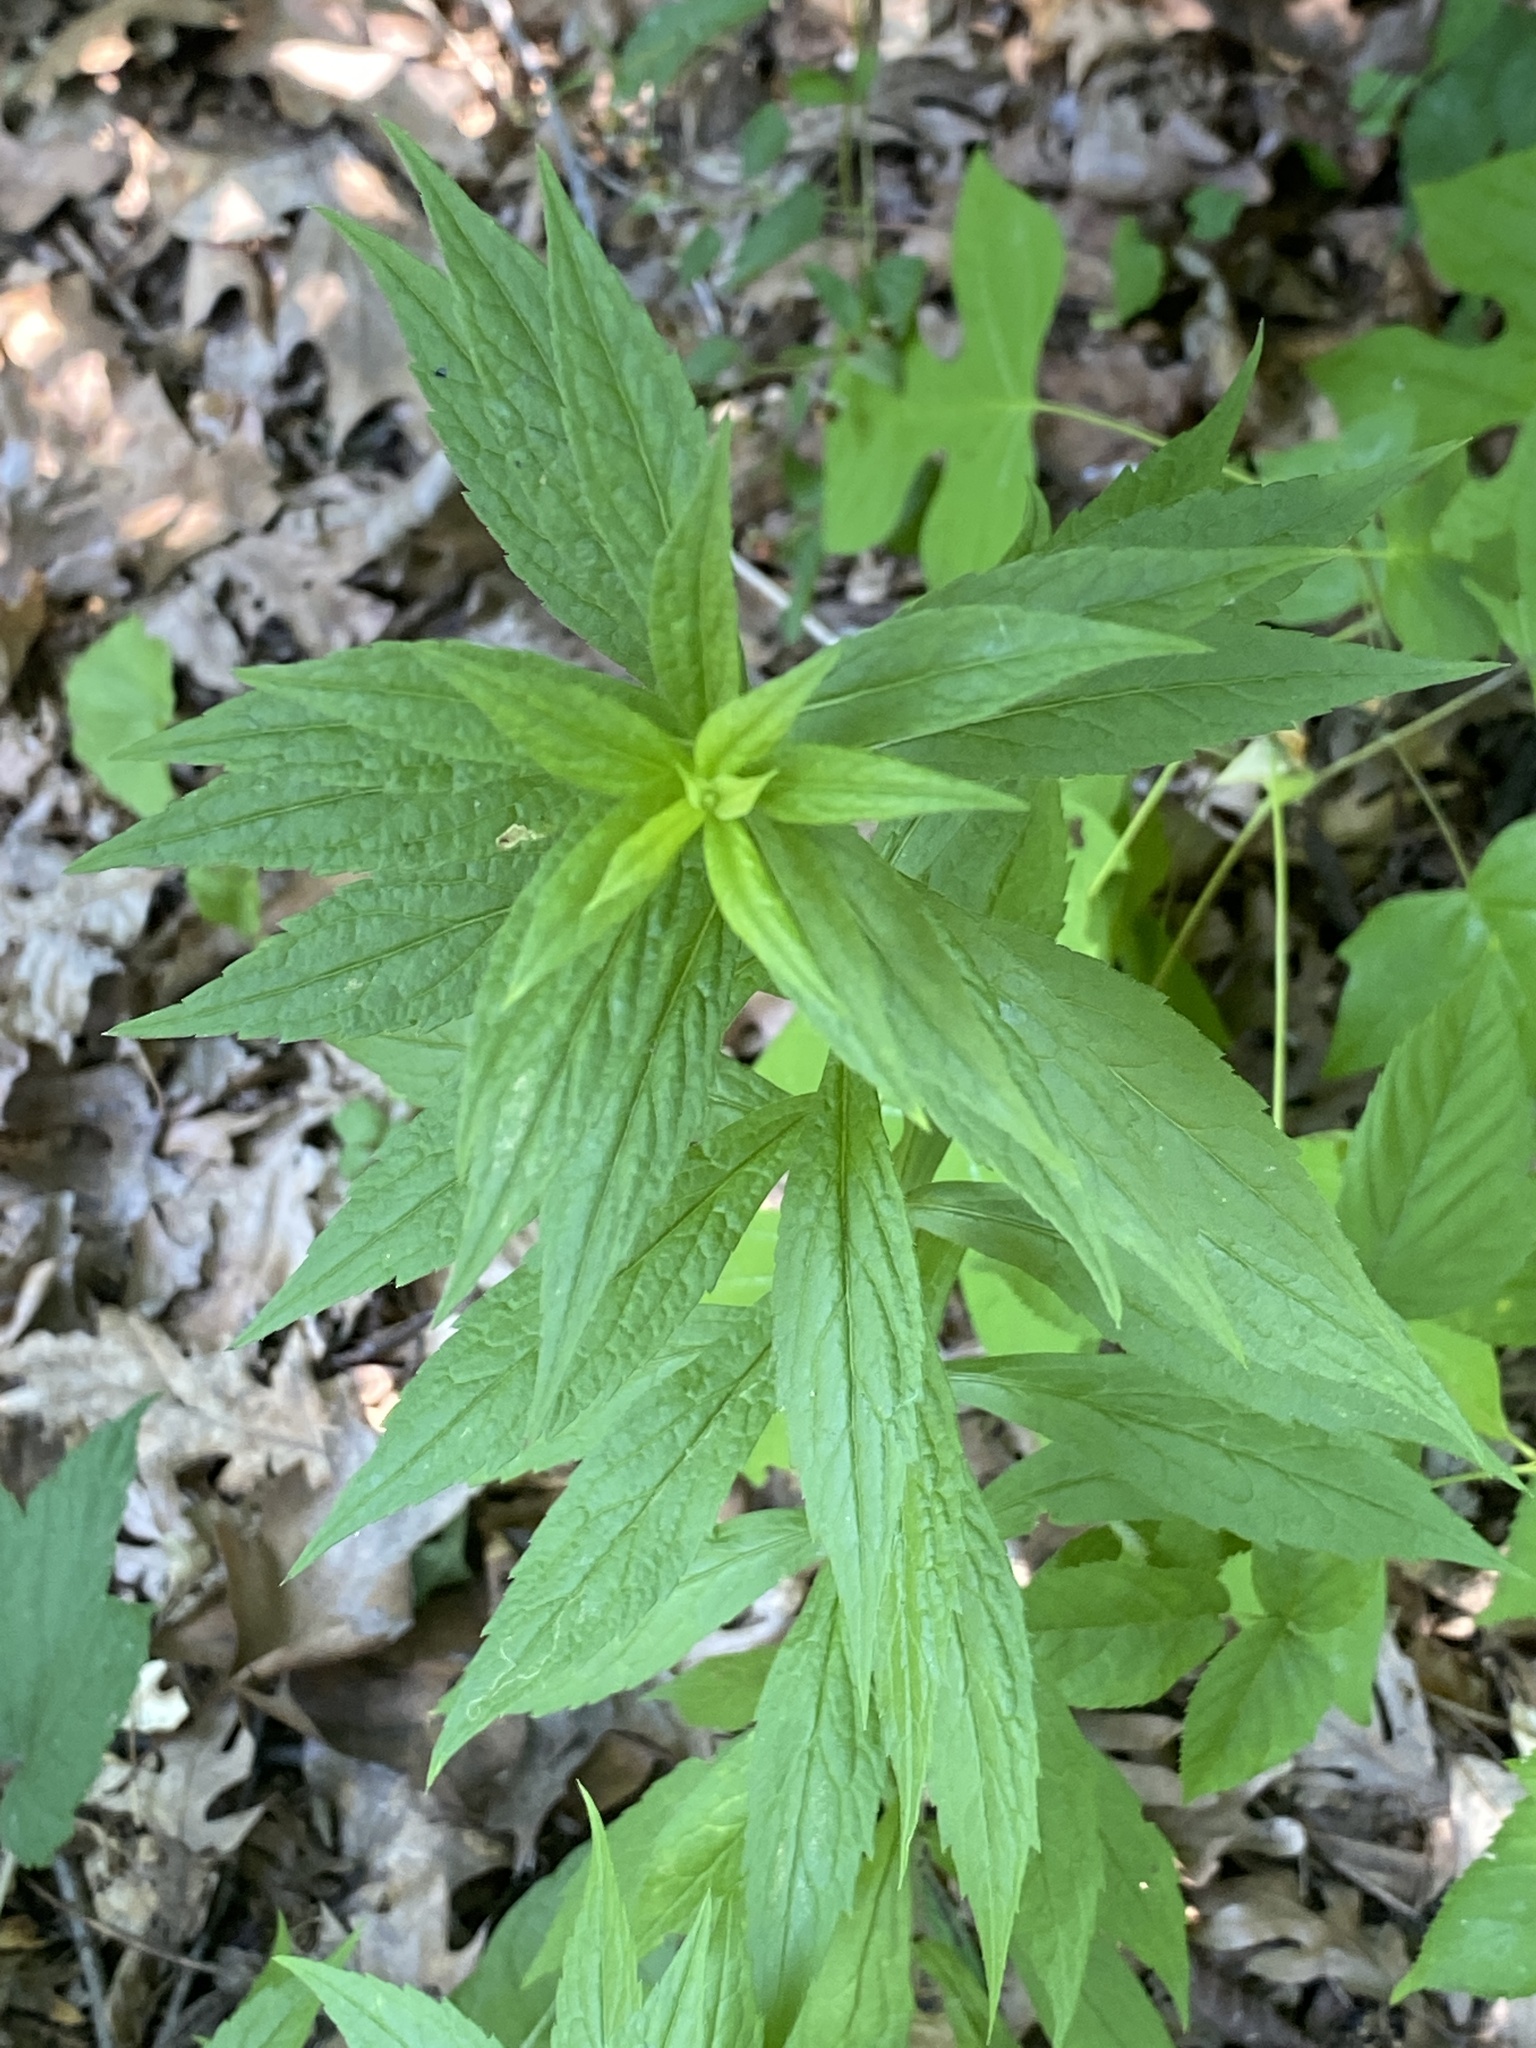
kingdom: Plantae
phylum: Tracheophyta
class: Magnoliopsida
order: Asterales
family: Asteraceae
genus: Solidago
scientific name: Solidago rugosa
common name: Rough-stemmed goldenrod
